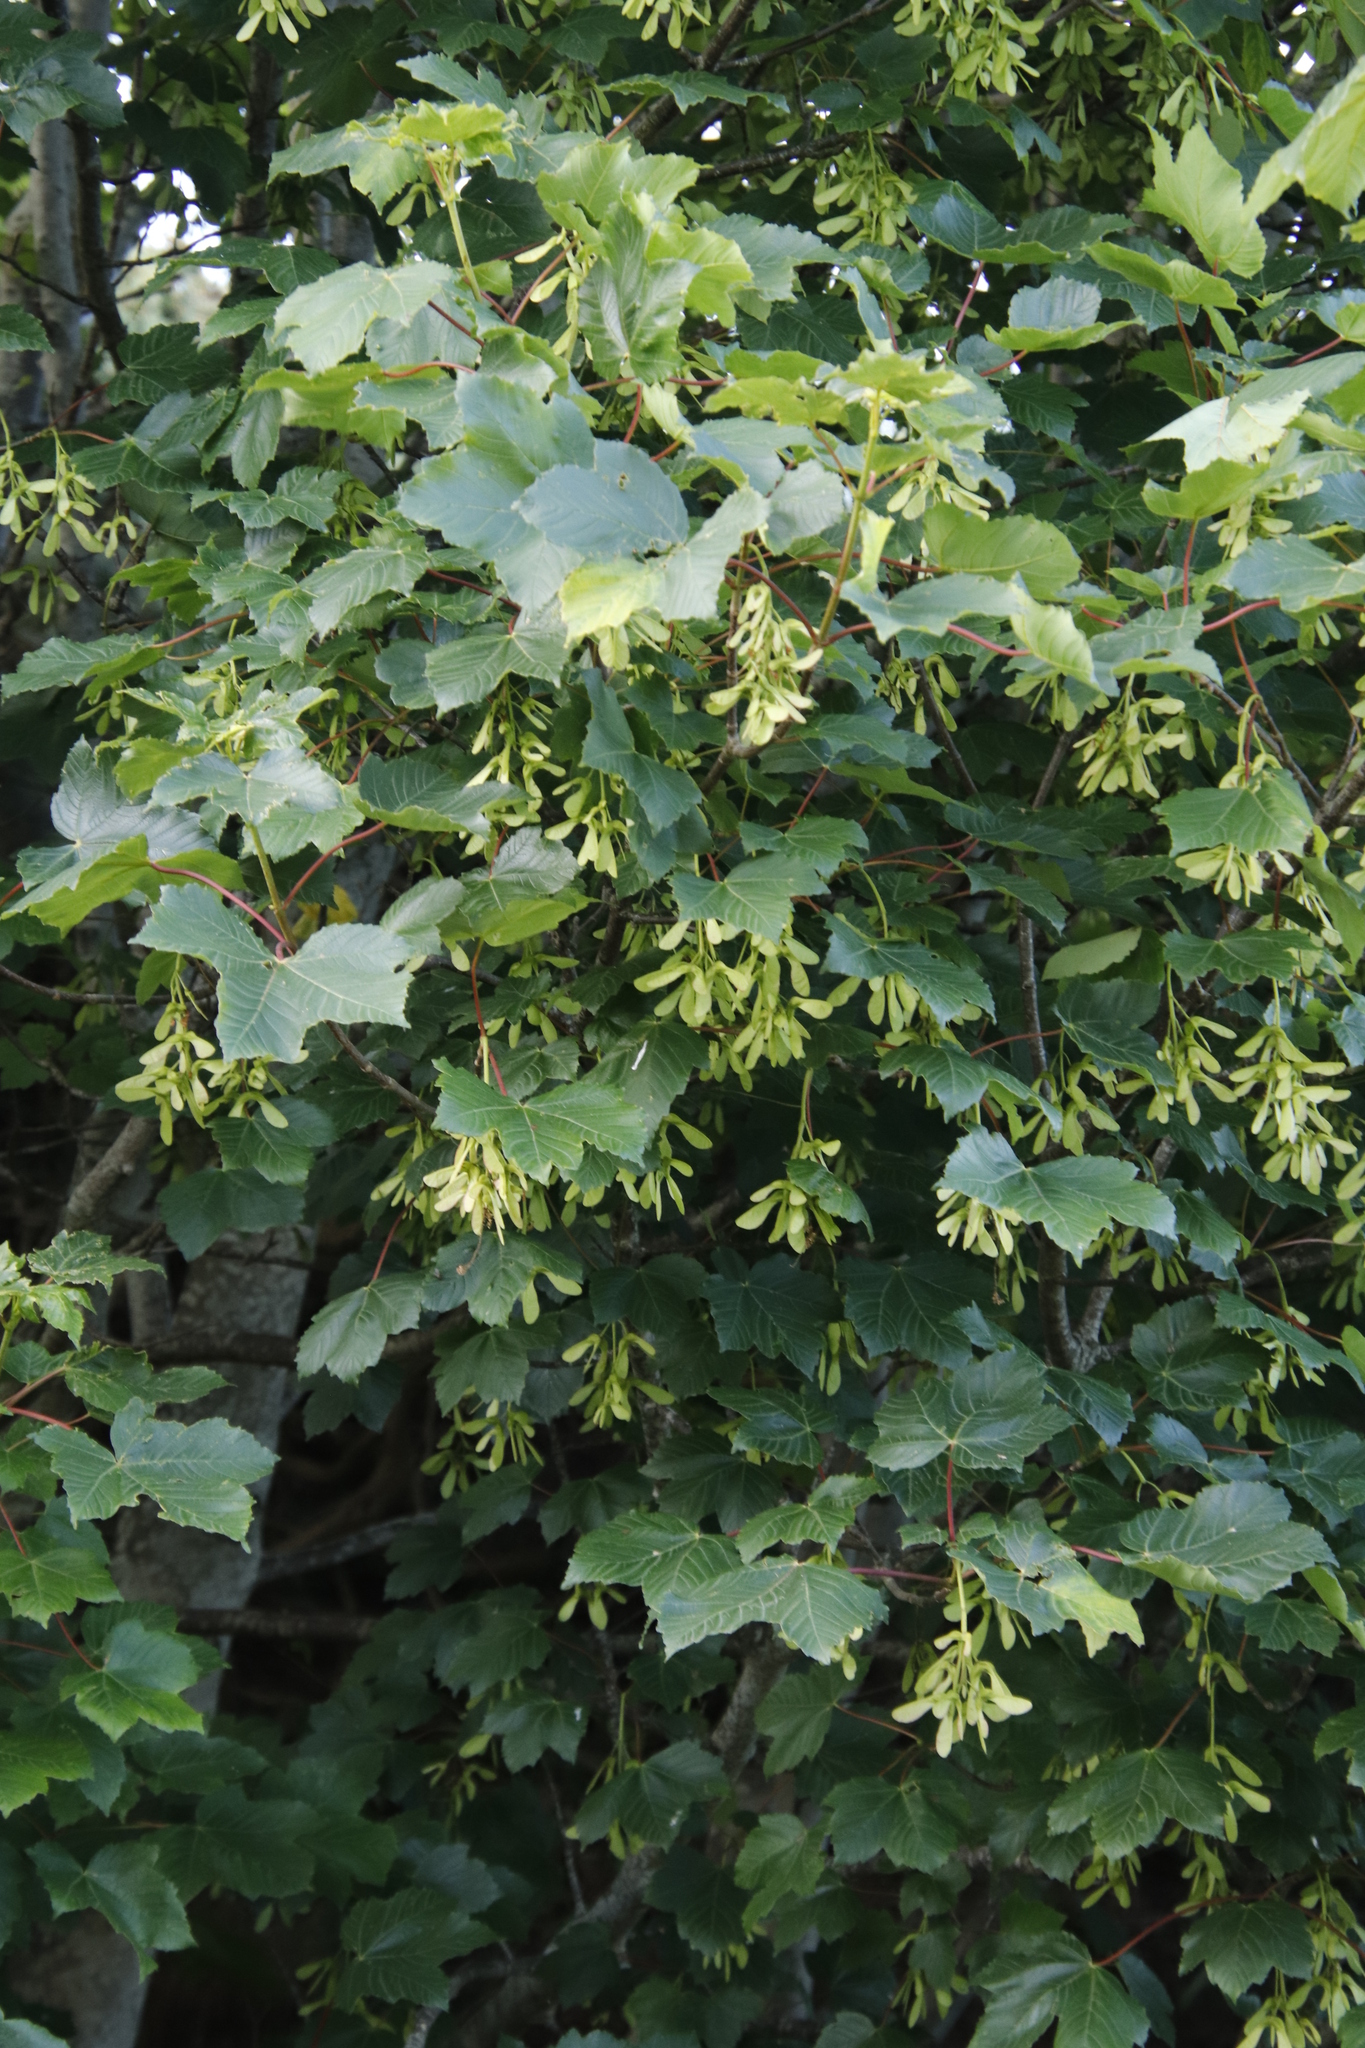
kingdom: Plantae
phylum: Tracheophyta
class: Magnoliopsida
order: Sapindales
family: Sapindaceae
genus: Acer
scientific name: Acer pseudoplatanus
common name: Sycamore
